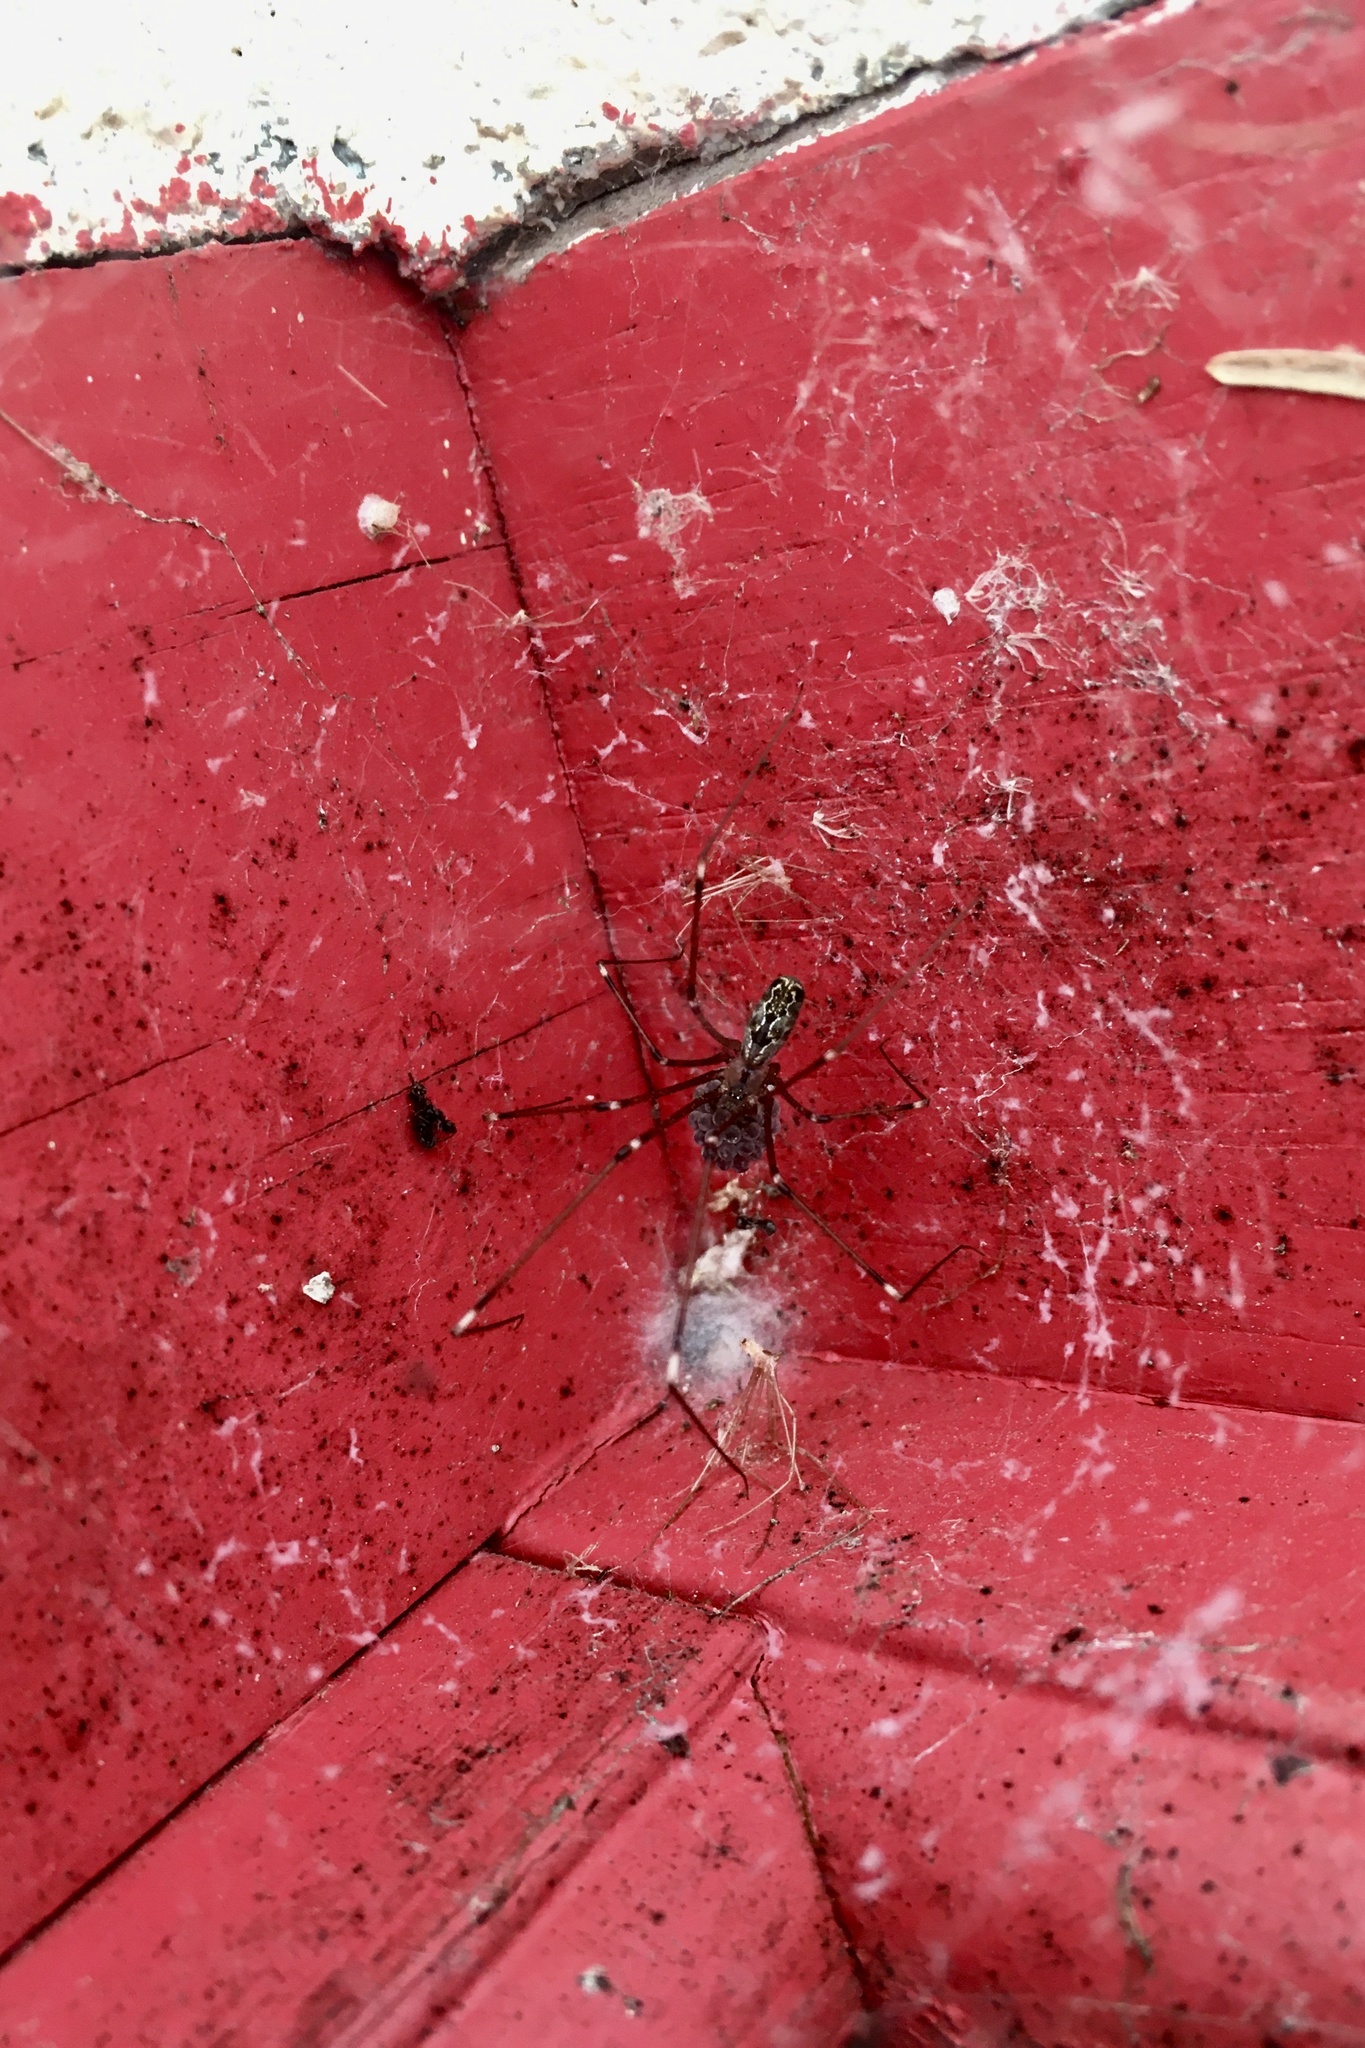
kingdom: Animalia
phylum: Arthropoda
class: Arachnida
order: Araneae
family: Pholcidae
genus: Holocnemus
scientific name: Holocnemus pluchei
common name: Marbled cellar spider
